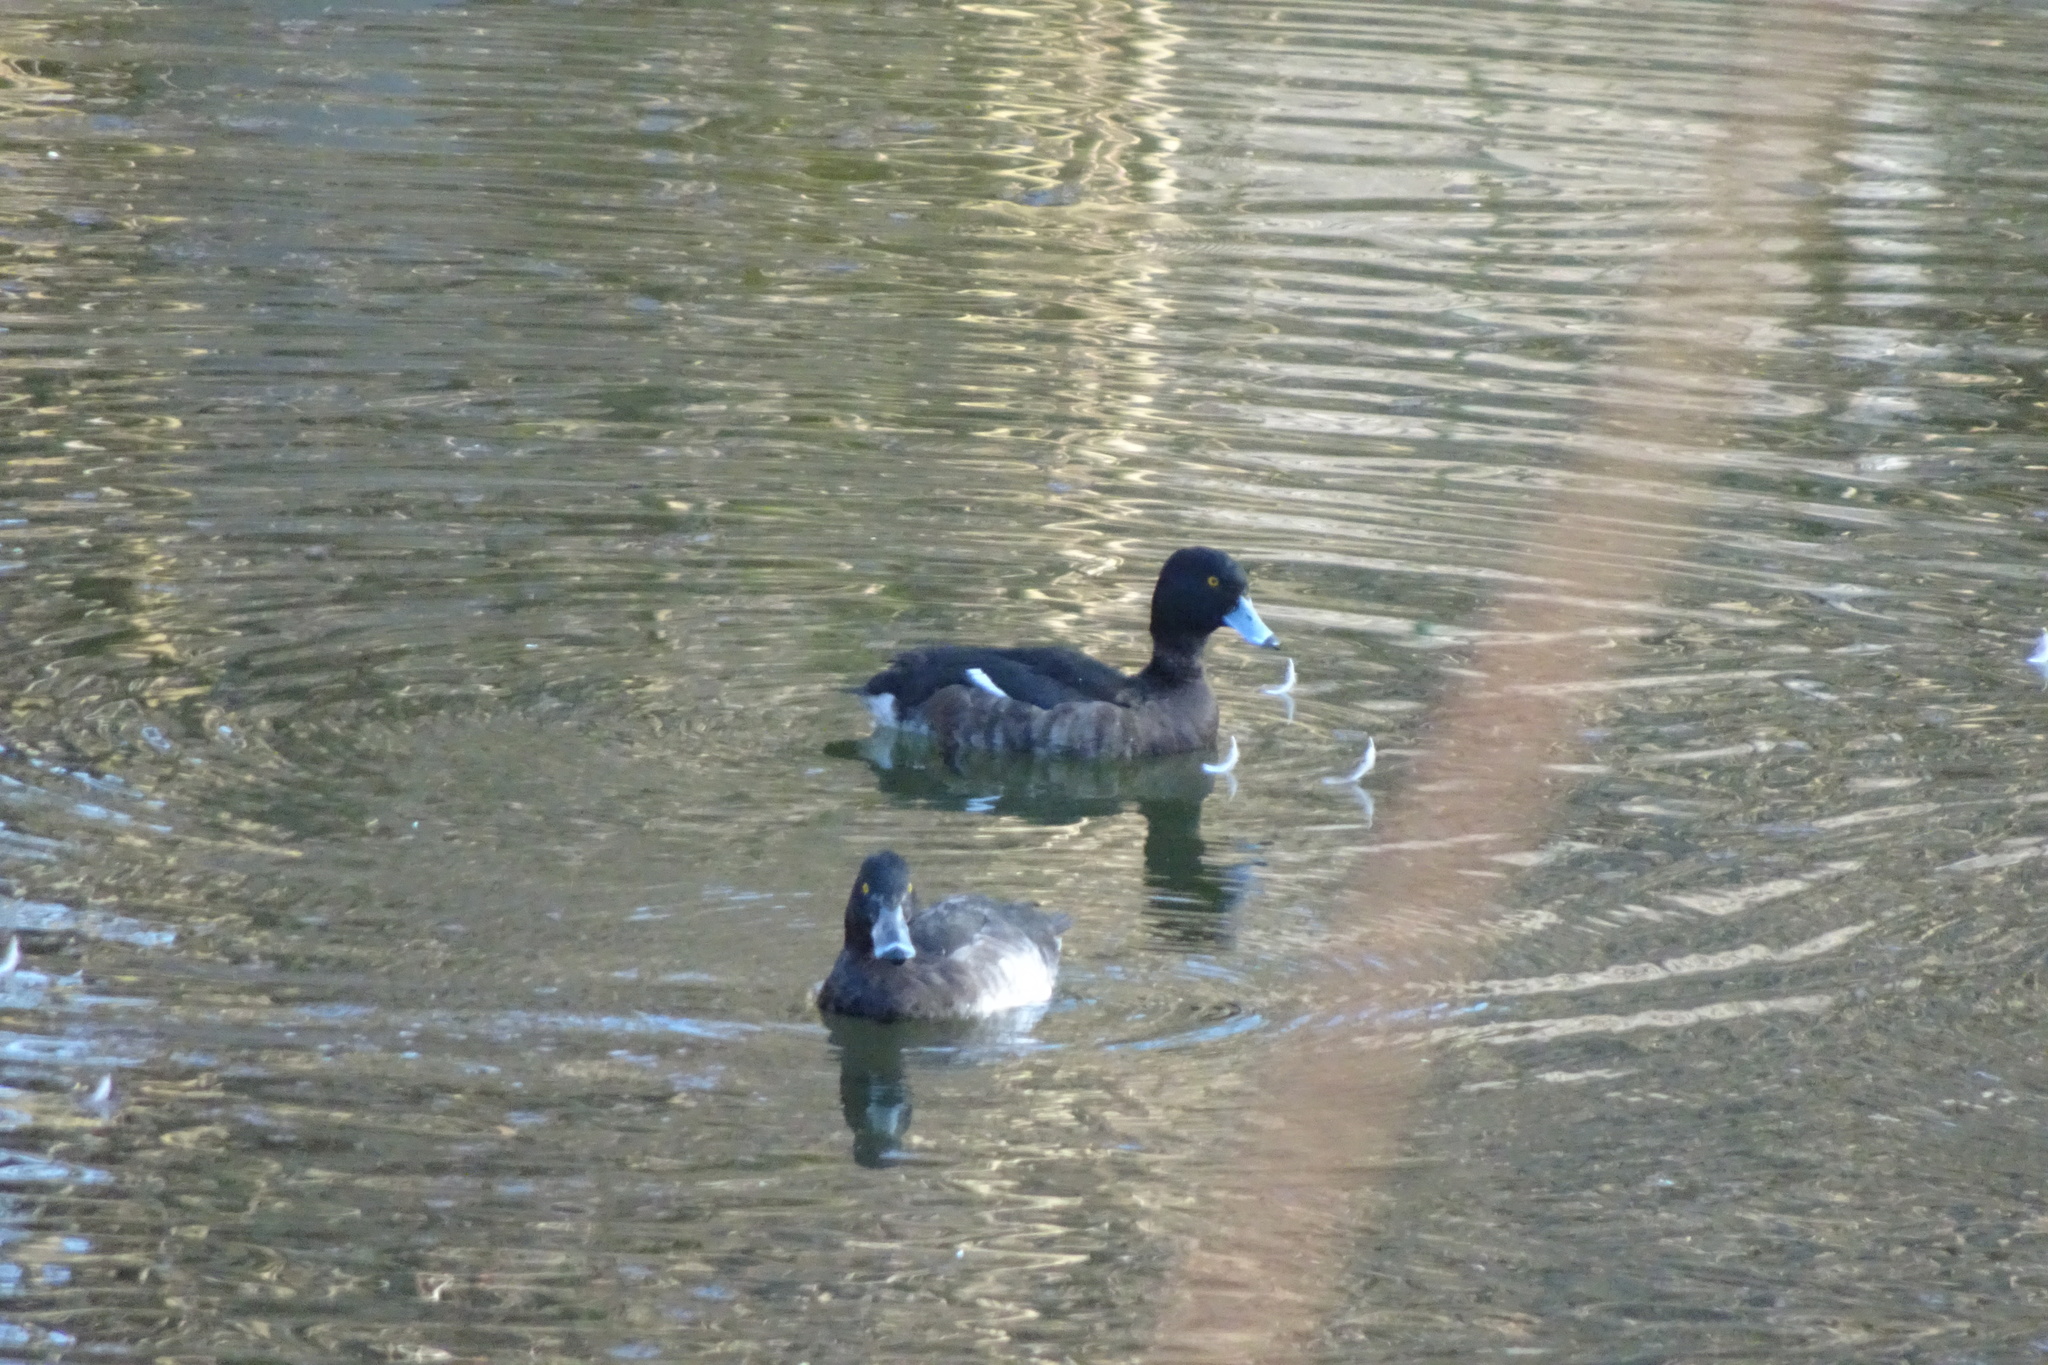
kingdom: Animalia
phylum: Chordata
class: Aves
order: Anseriformes
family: Anatidae
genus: Aythya
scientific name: Aythya fuligula
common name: Tufted duck
